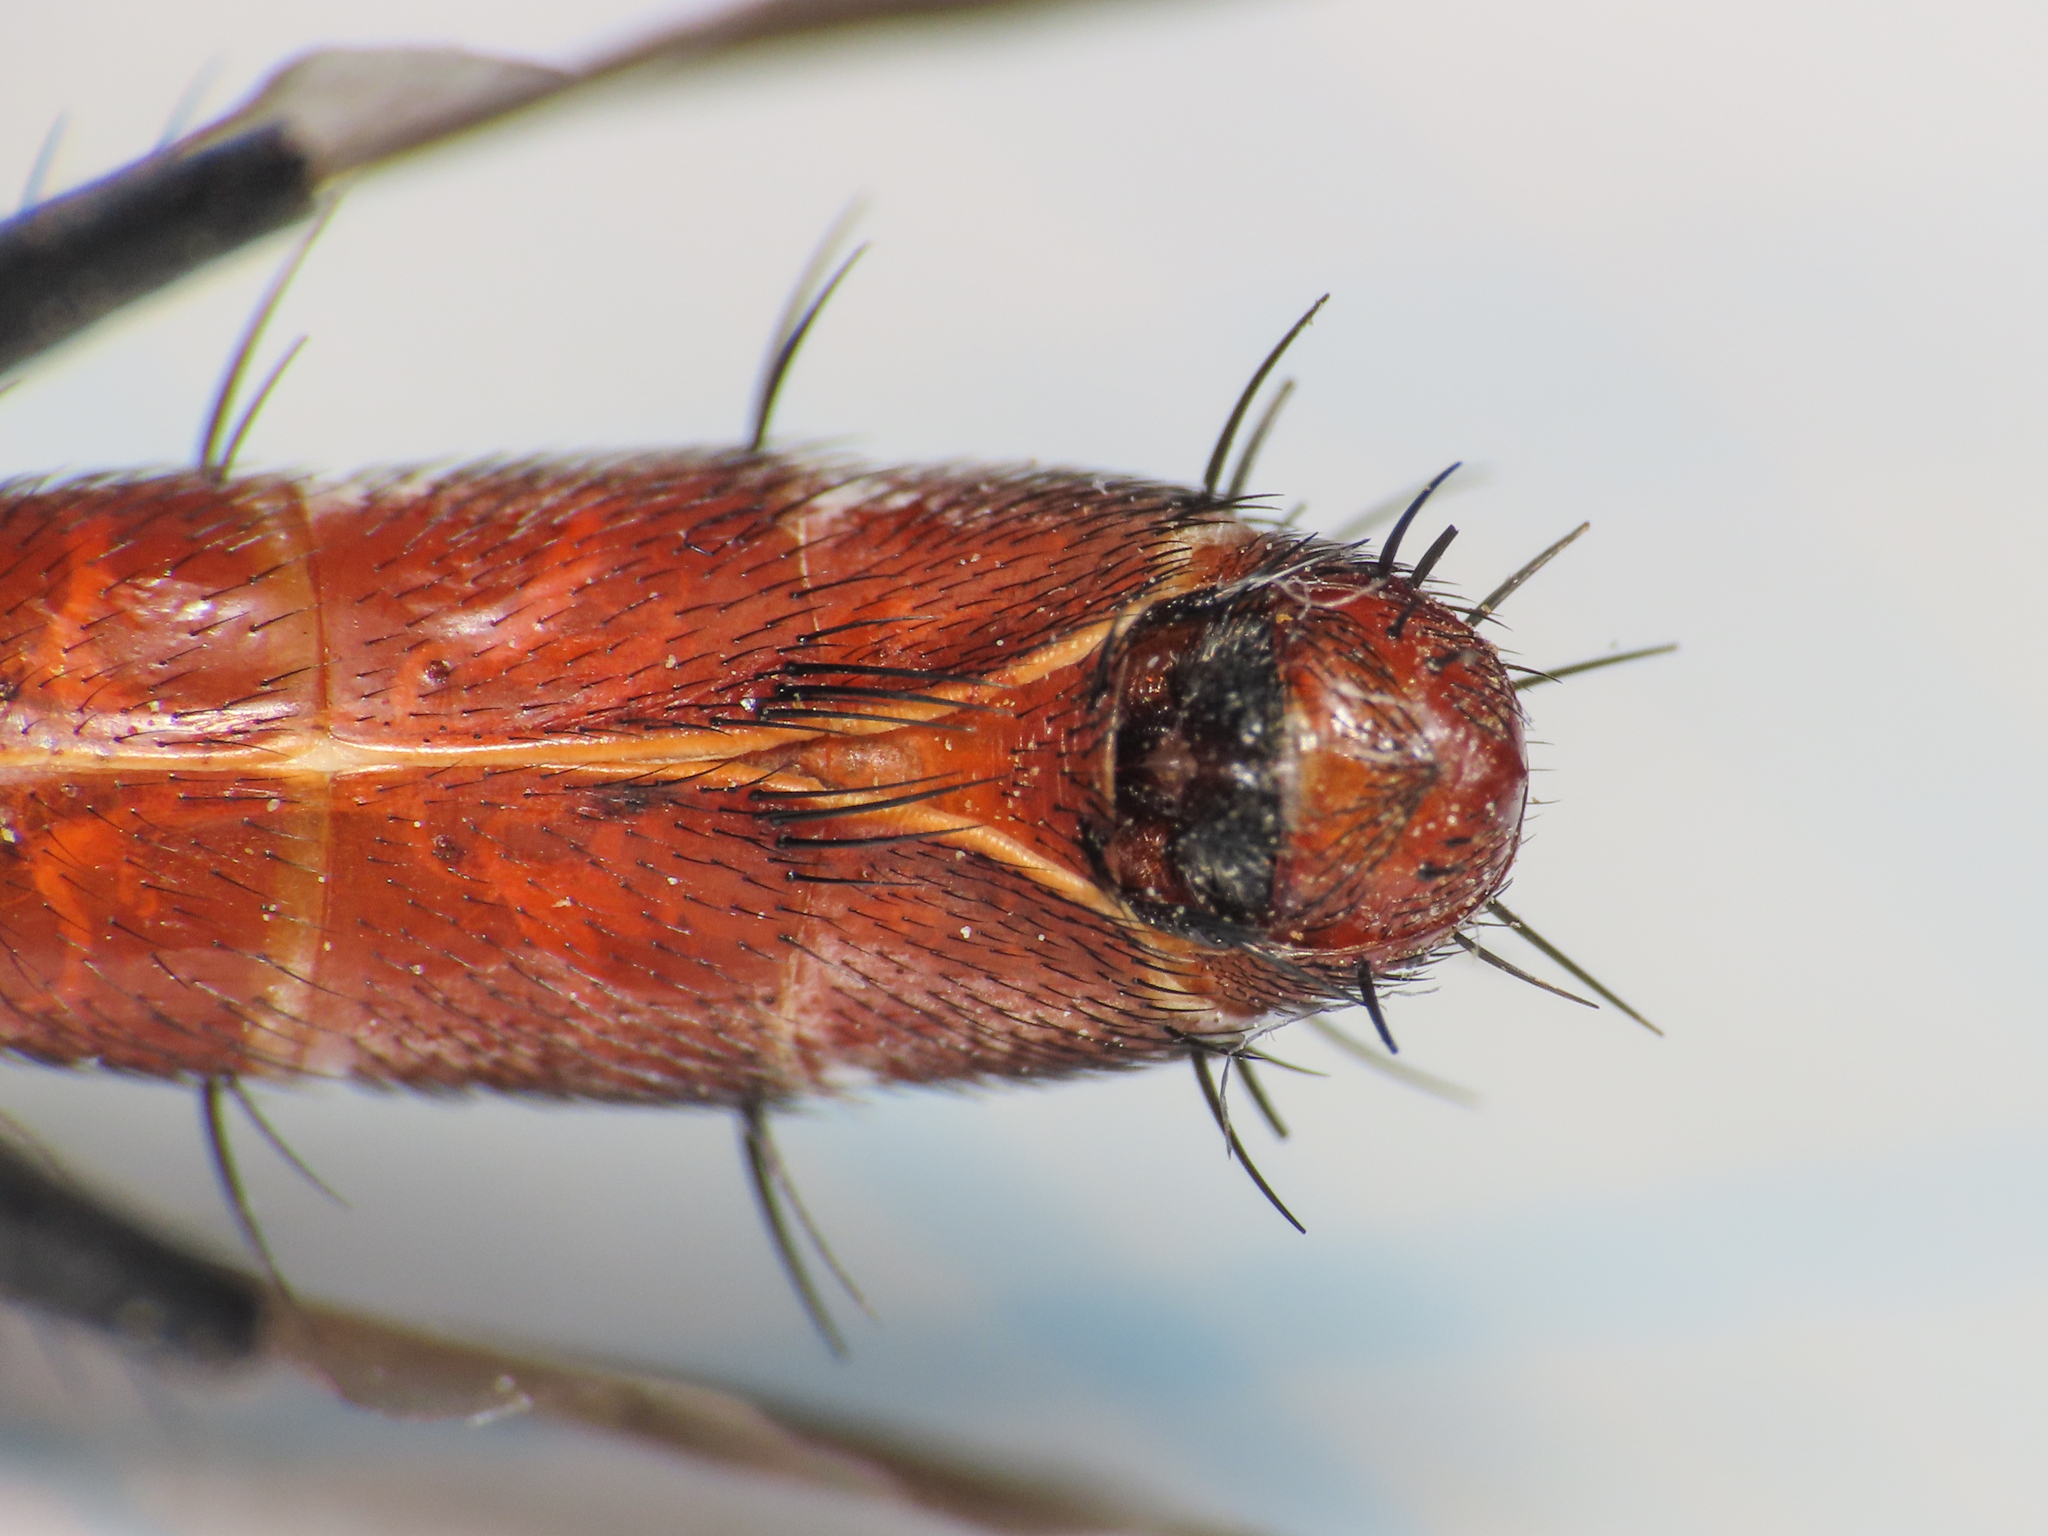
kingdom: Animalia
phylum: Arthropoda
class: Insecta
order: Diptera
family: Tachinidae
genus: Cylindromyia
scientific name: Cylindromyia bicolor
